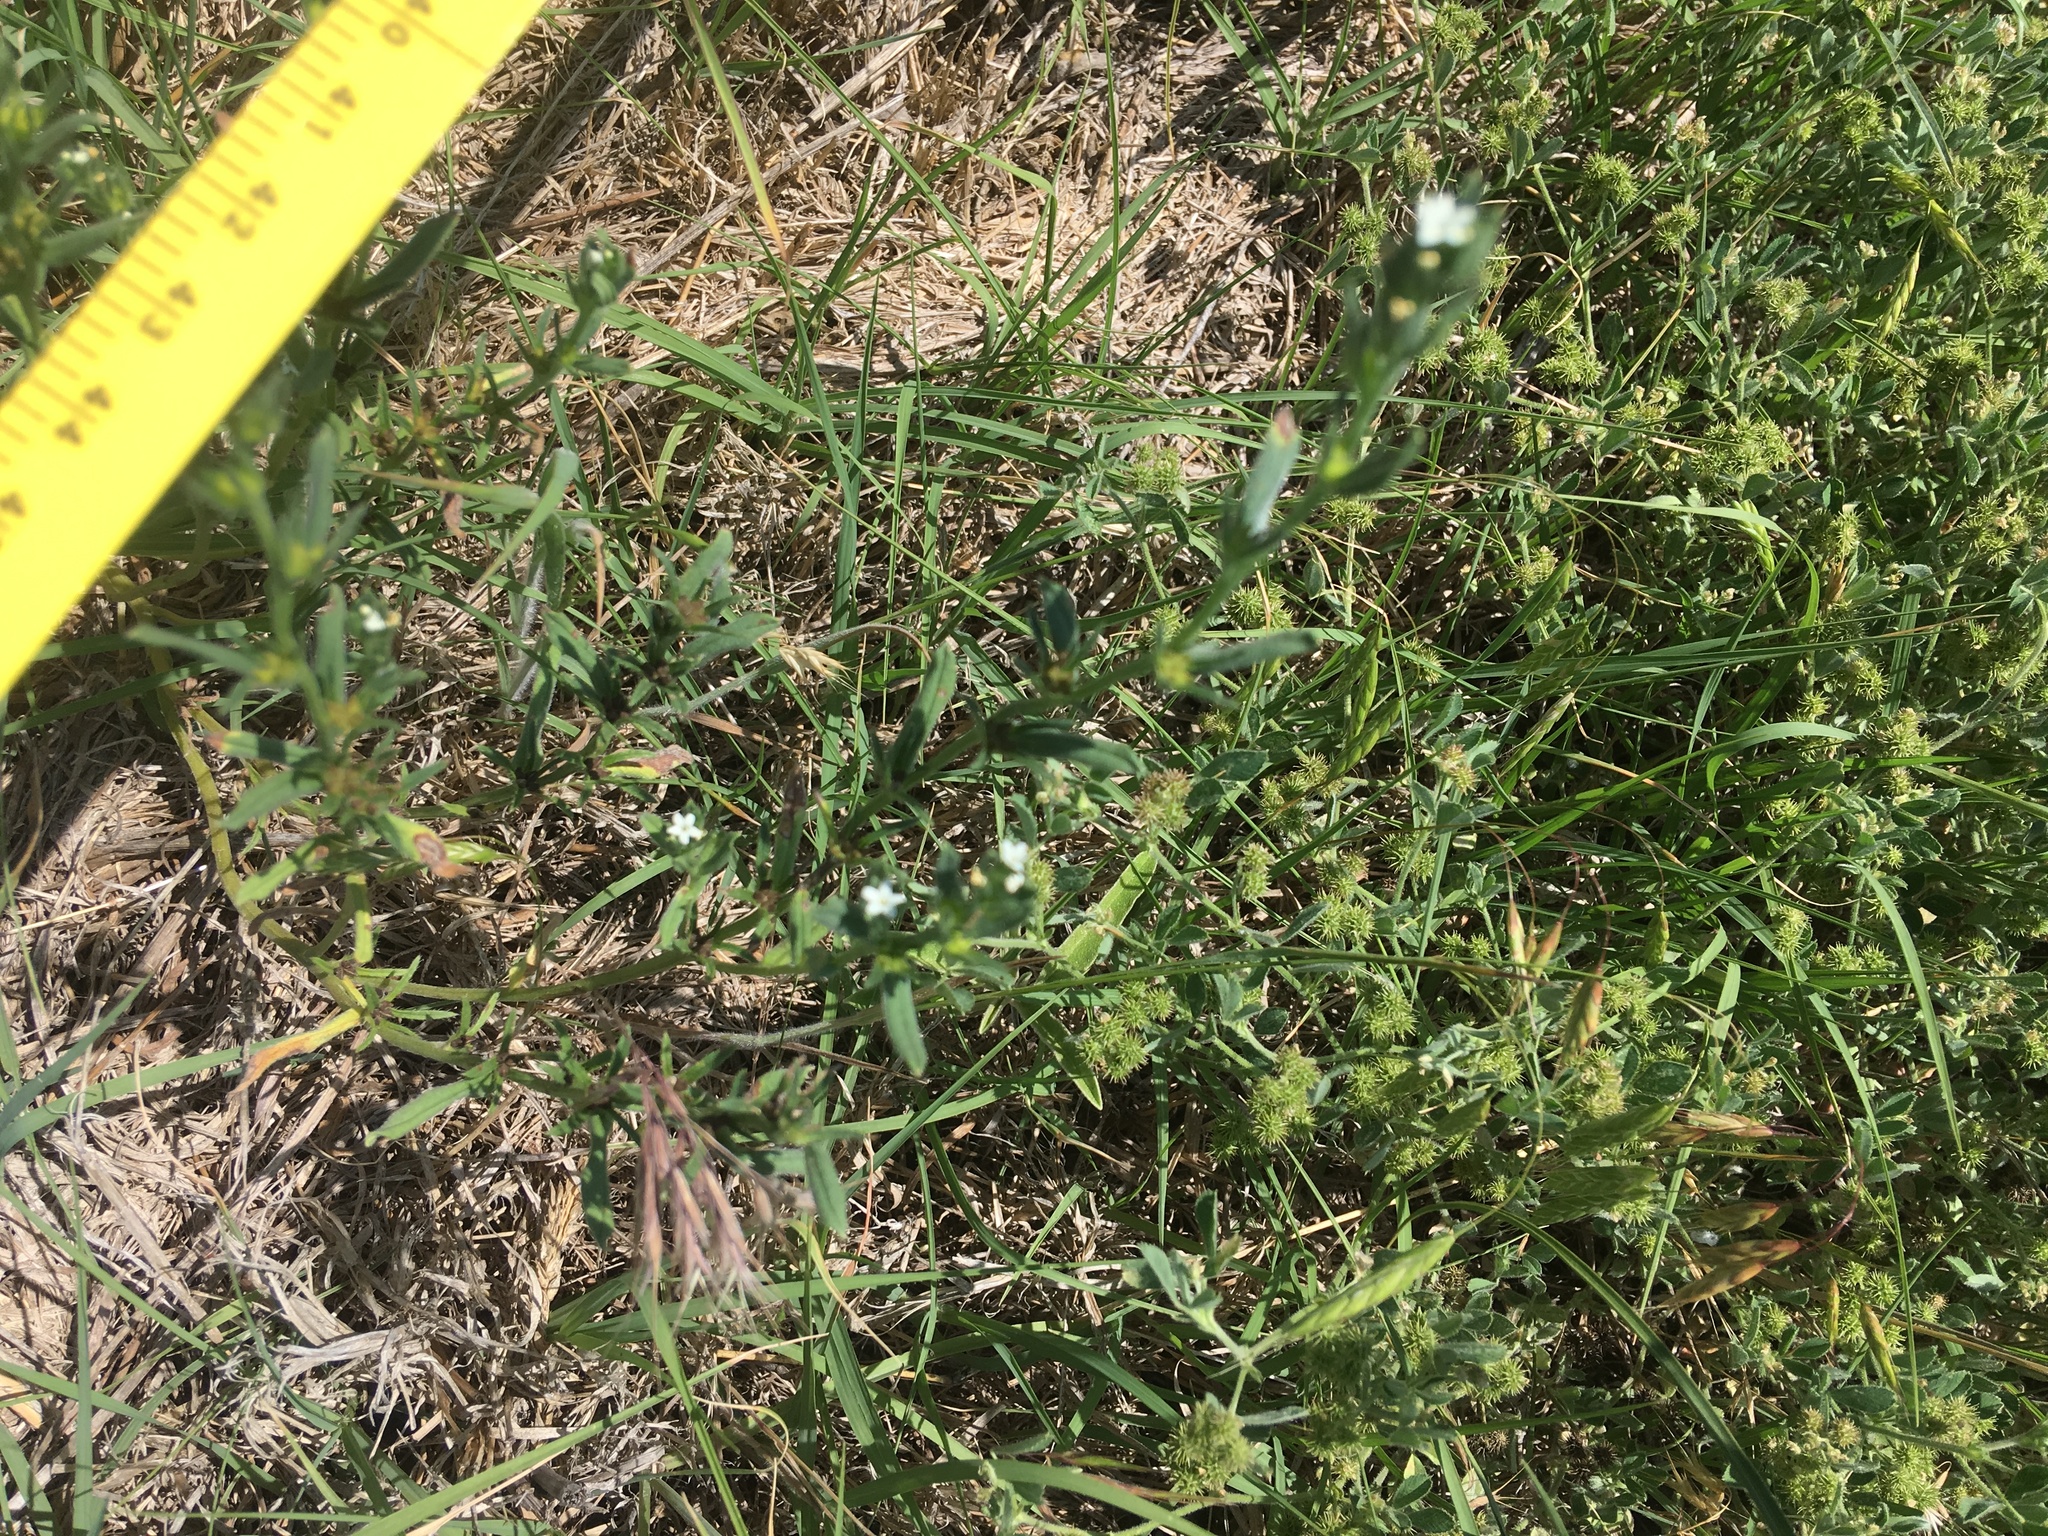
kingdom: Plantae
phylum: Tracheophyta
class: Magnoliopsida
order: Boraginales
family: Boraginaceae
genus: Buglossoides
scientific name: Buglossoides arvensis
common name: Corn gromwell
